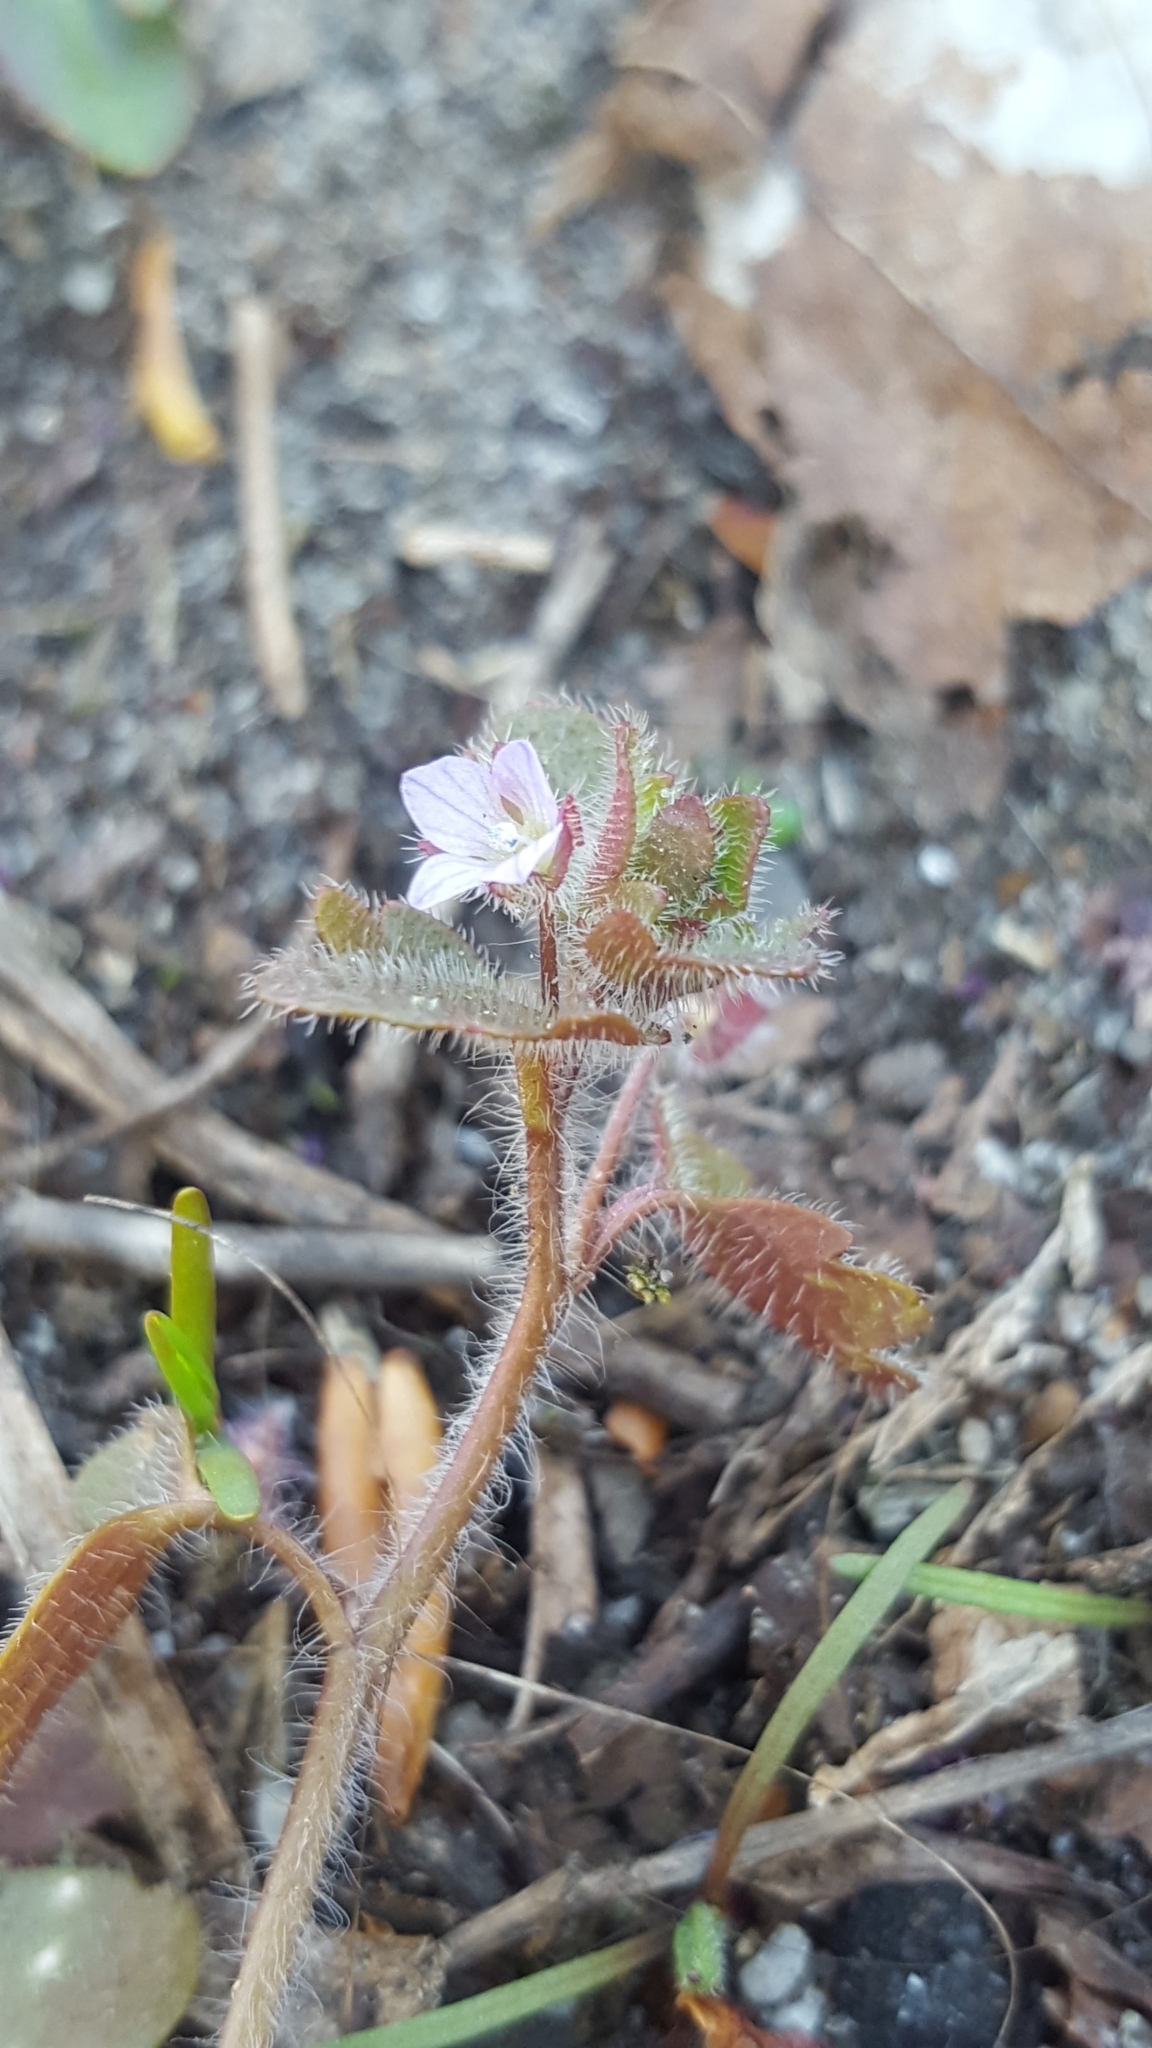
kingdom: Plantae
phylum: Tracheophyta
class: Magnoliopsida
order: Lamiales
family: Plantaginaceae
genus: Veronica
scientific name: Veronica sublobata
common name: False ivy-leaved speedwell
